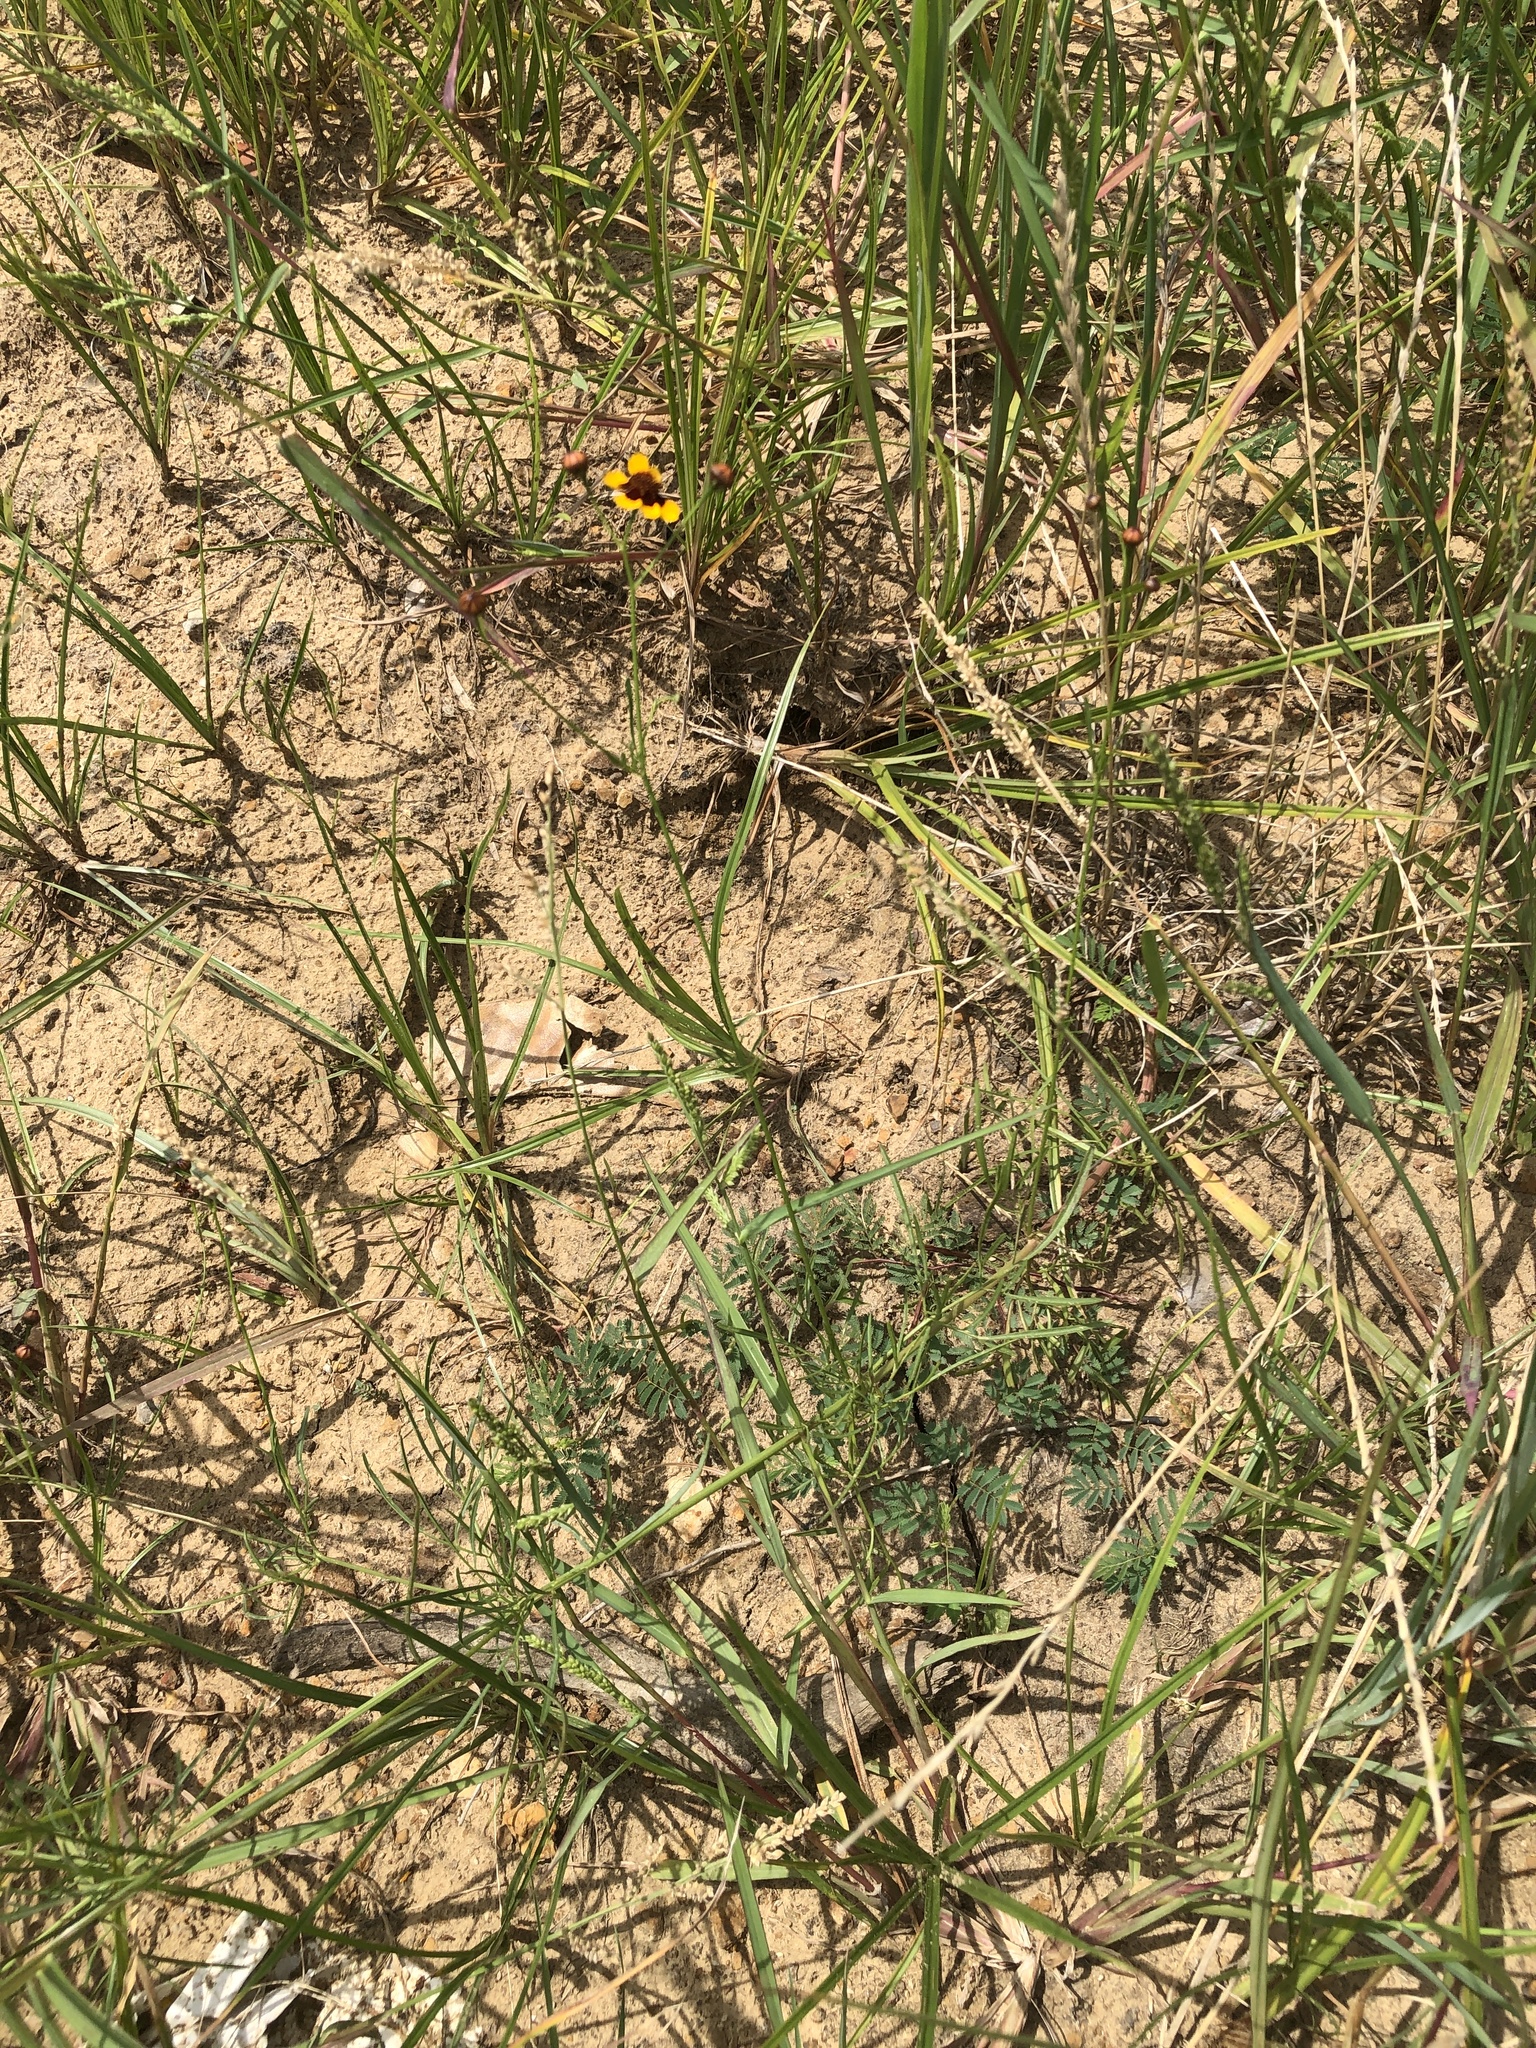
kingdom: Plantae
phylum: Tracheophyta
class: Magnoliopsida
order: Asterales
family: Asteraceae
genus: Coreopsis
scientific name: Coreopsis tinctoria
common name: Garden tickseed
